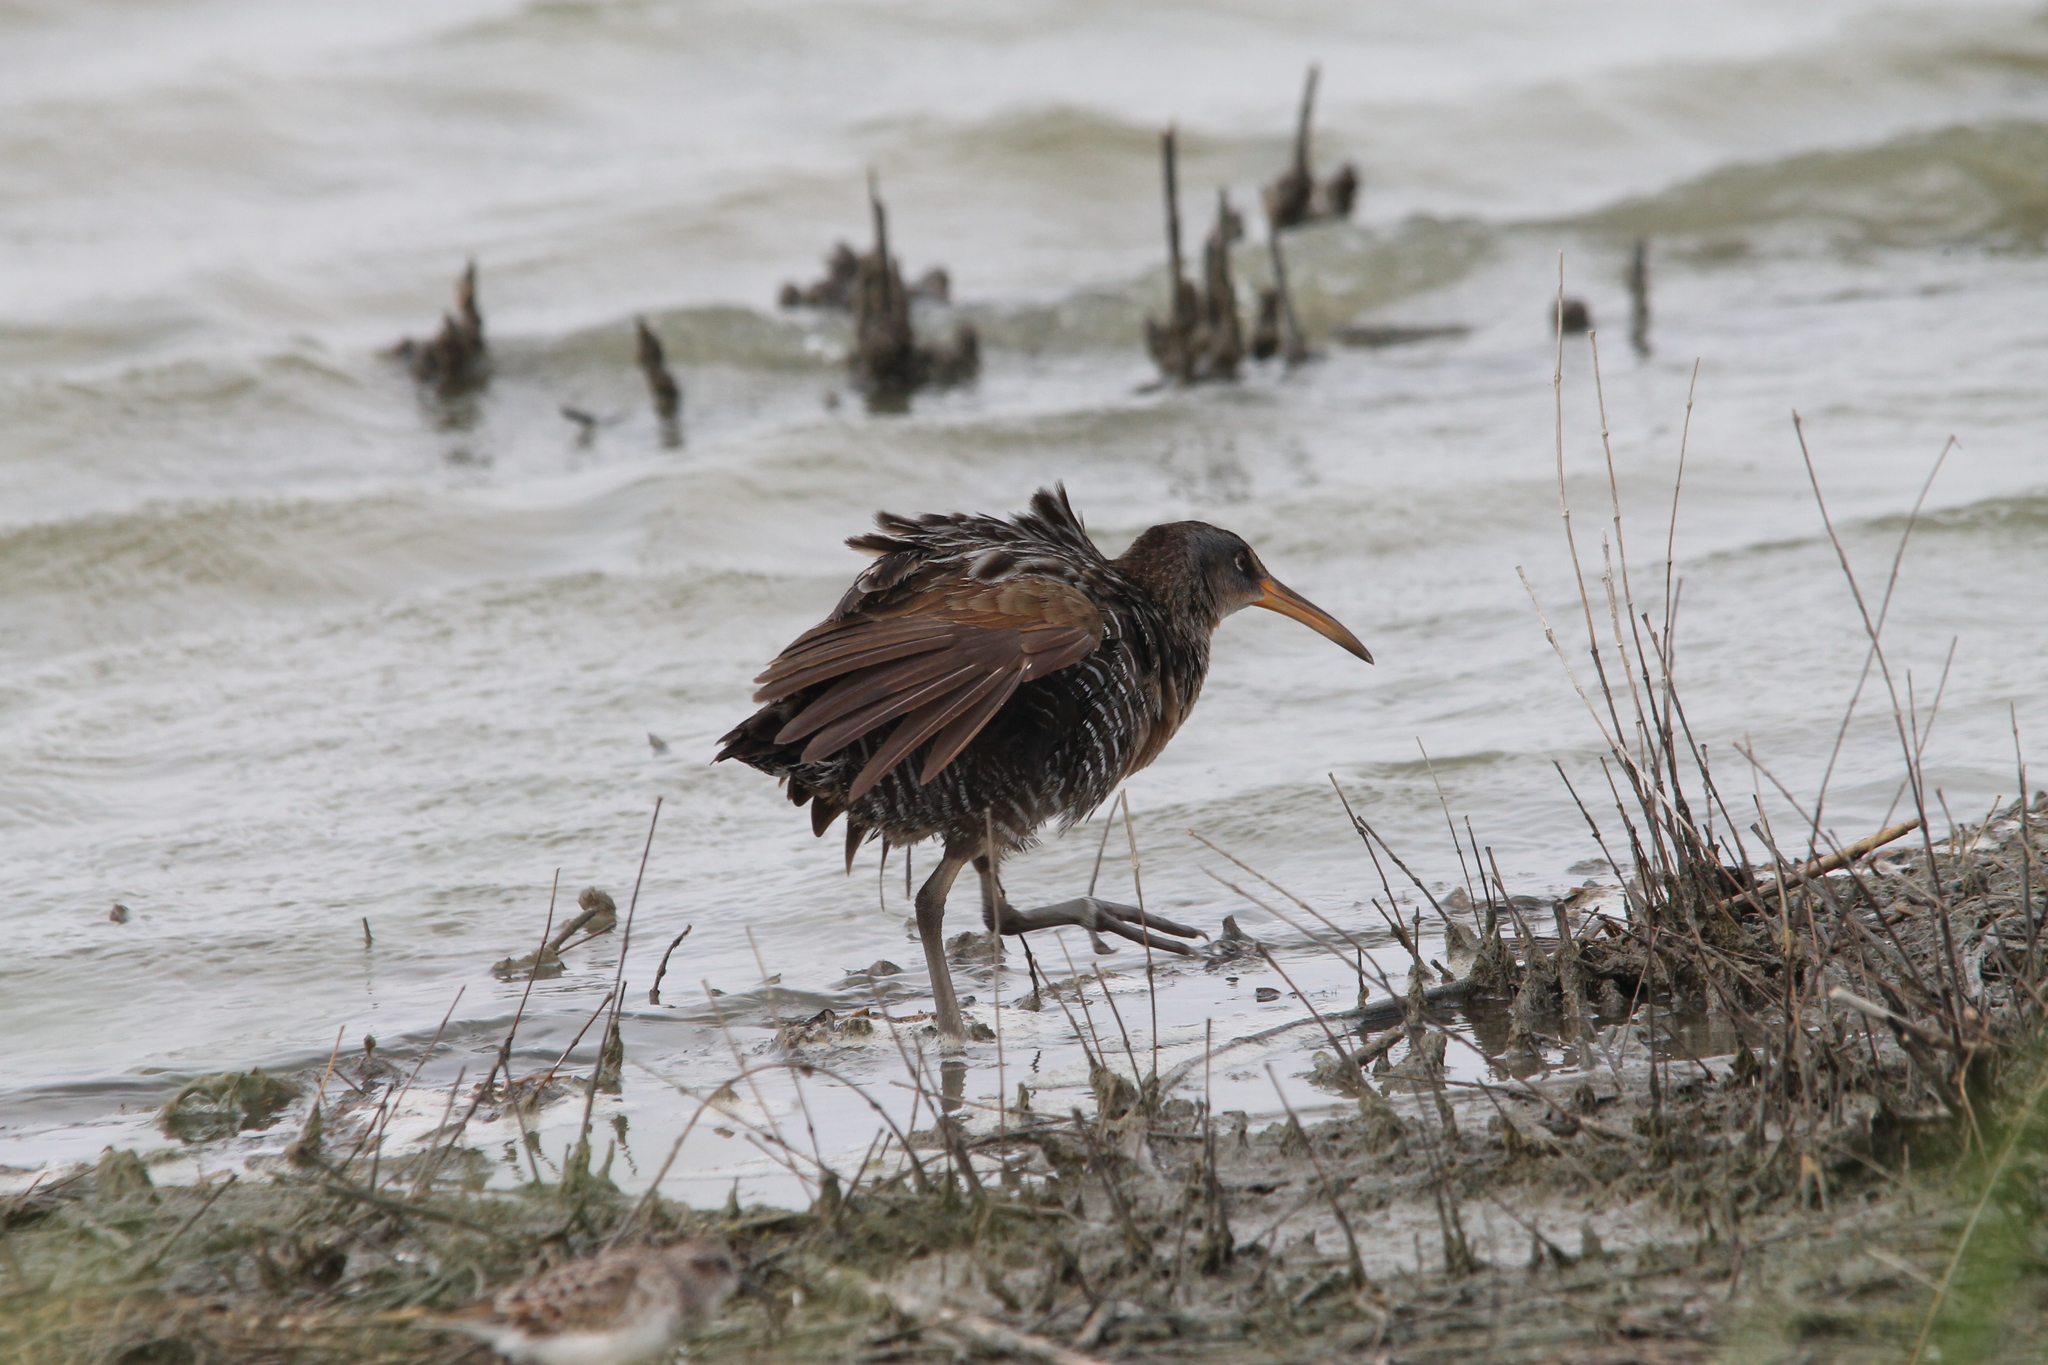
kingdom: Animalia
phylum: Chordata
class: Aves
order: Gruiformes
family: Rallidae
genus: Rallus
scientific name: Rallus crepitans
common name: Clapper rail
